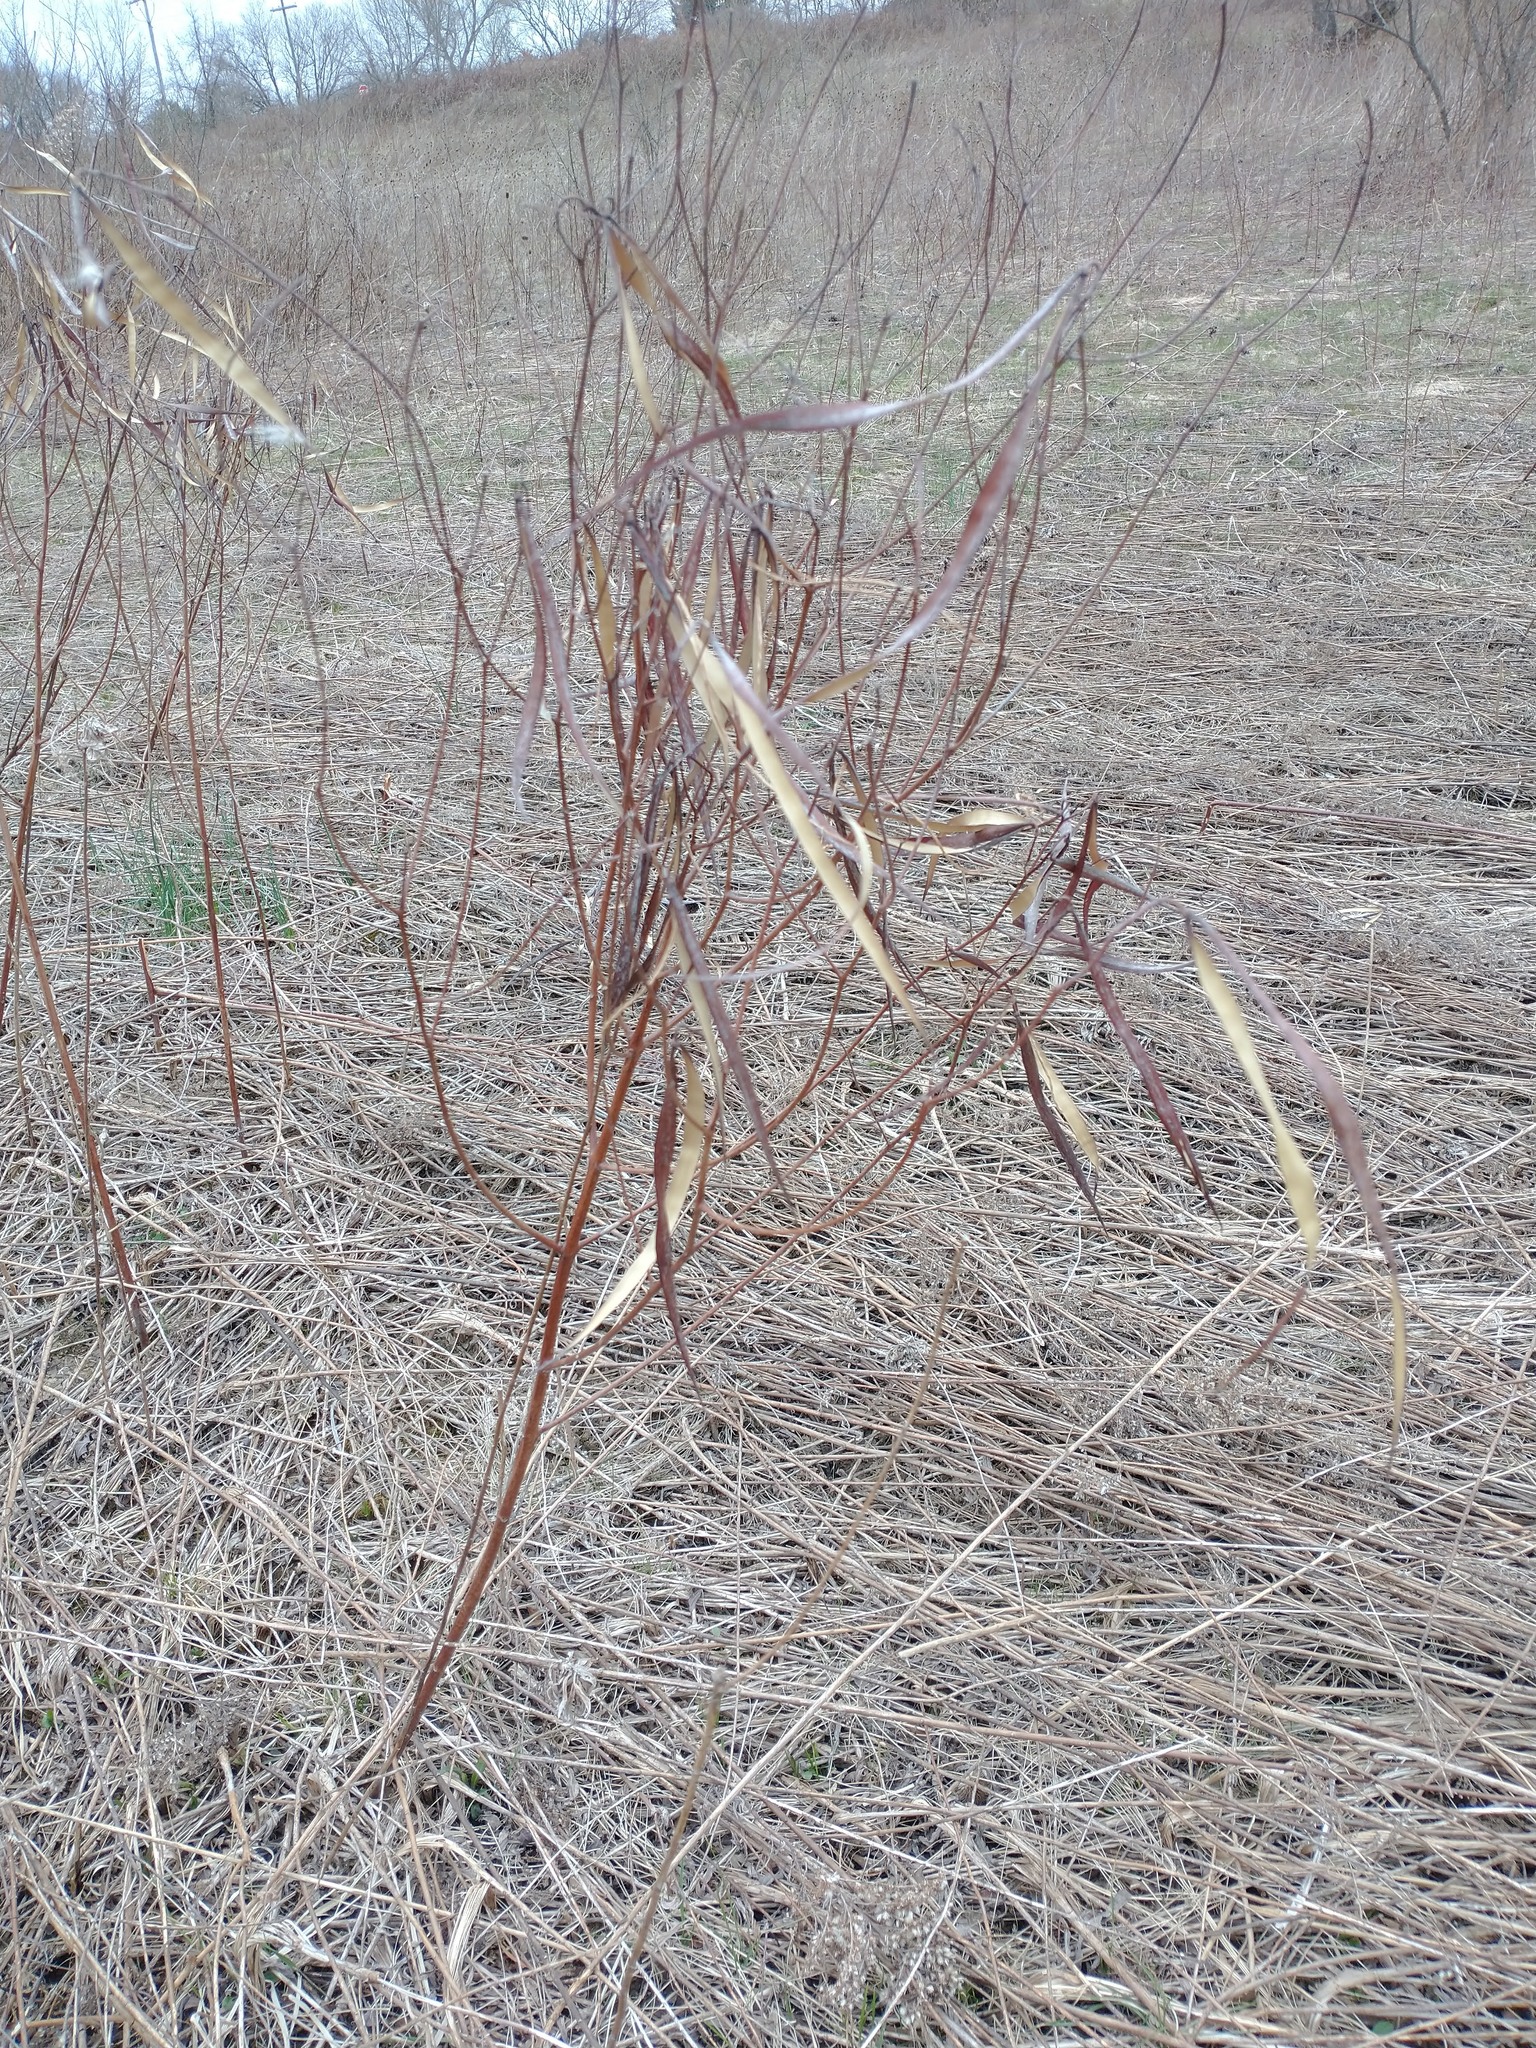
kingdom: Plantae
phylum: Tracheophyta
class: Magnoliopsida
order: Gentianales
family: Apocynaceae
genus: Apocynum
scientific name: Apocynum cannabinum
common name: Hemp dogbane
